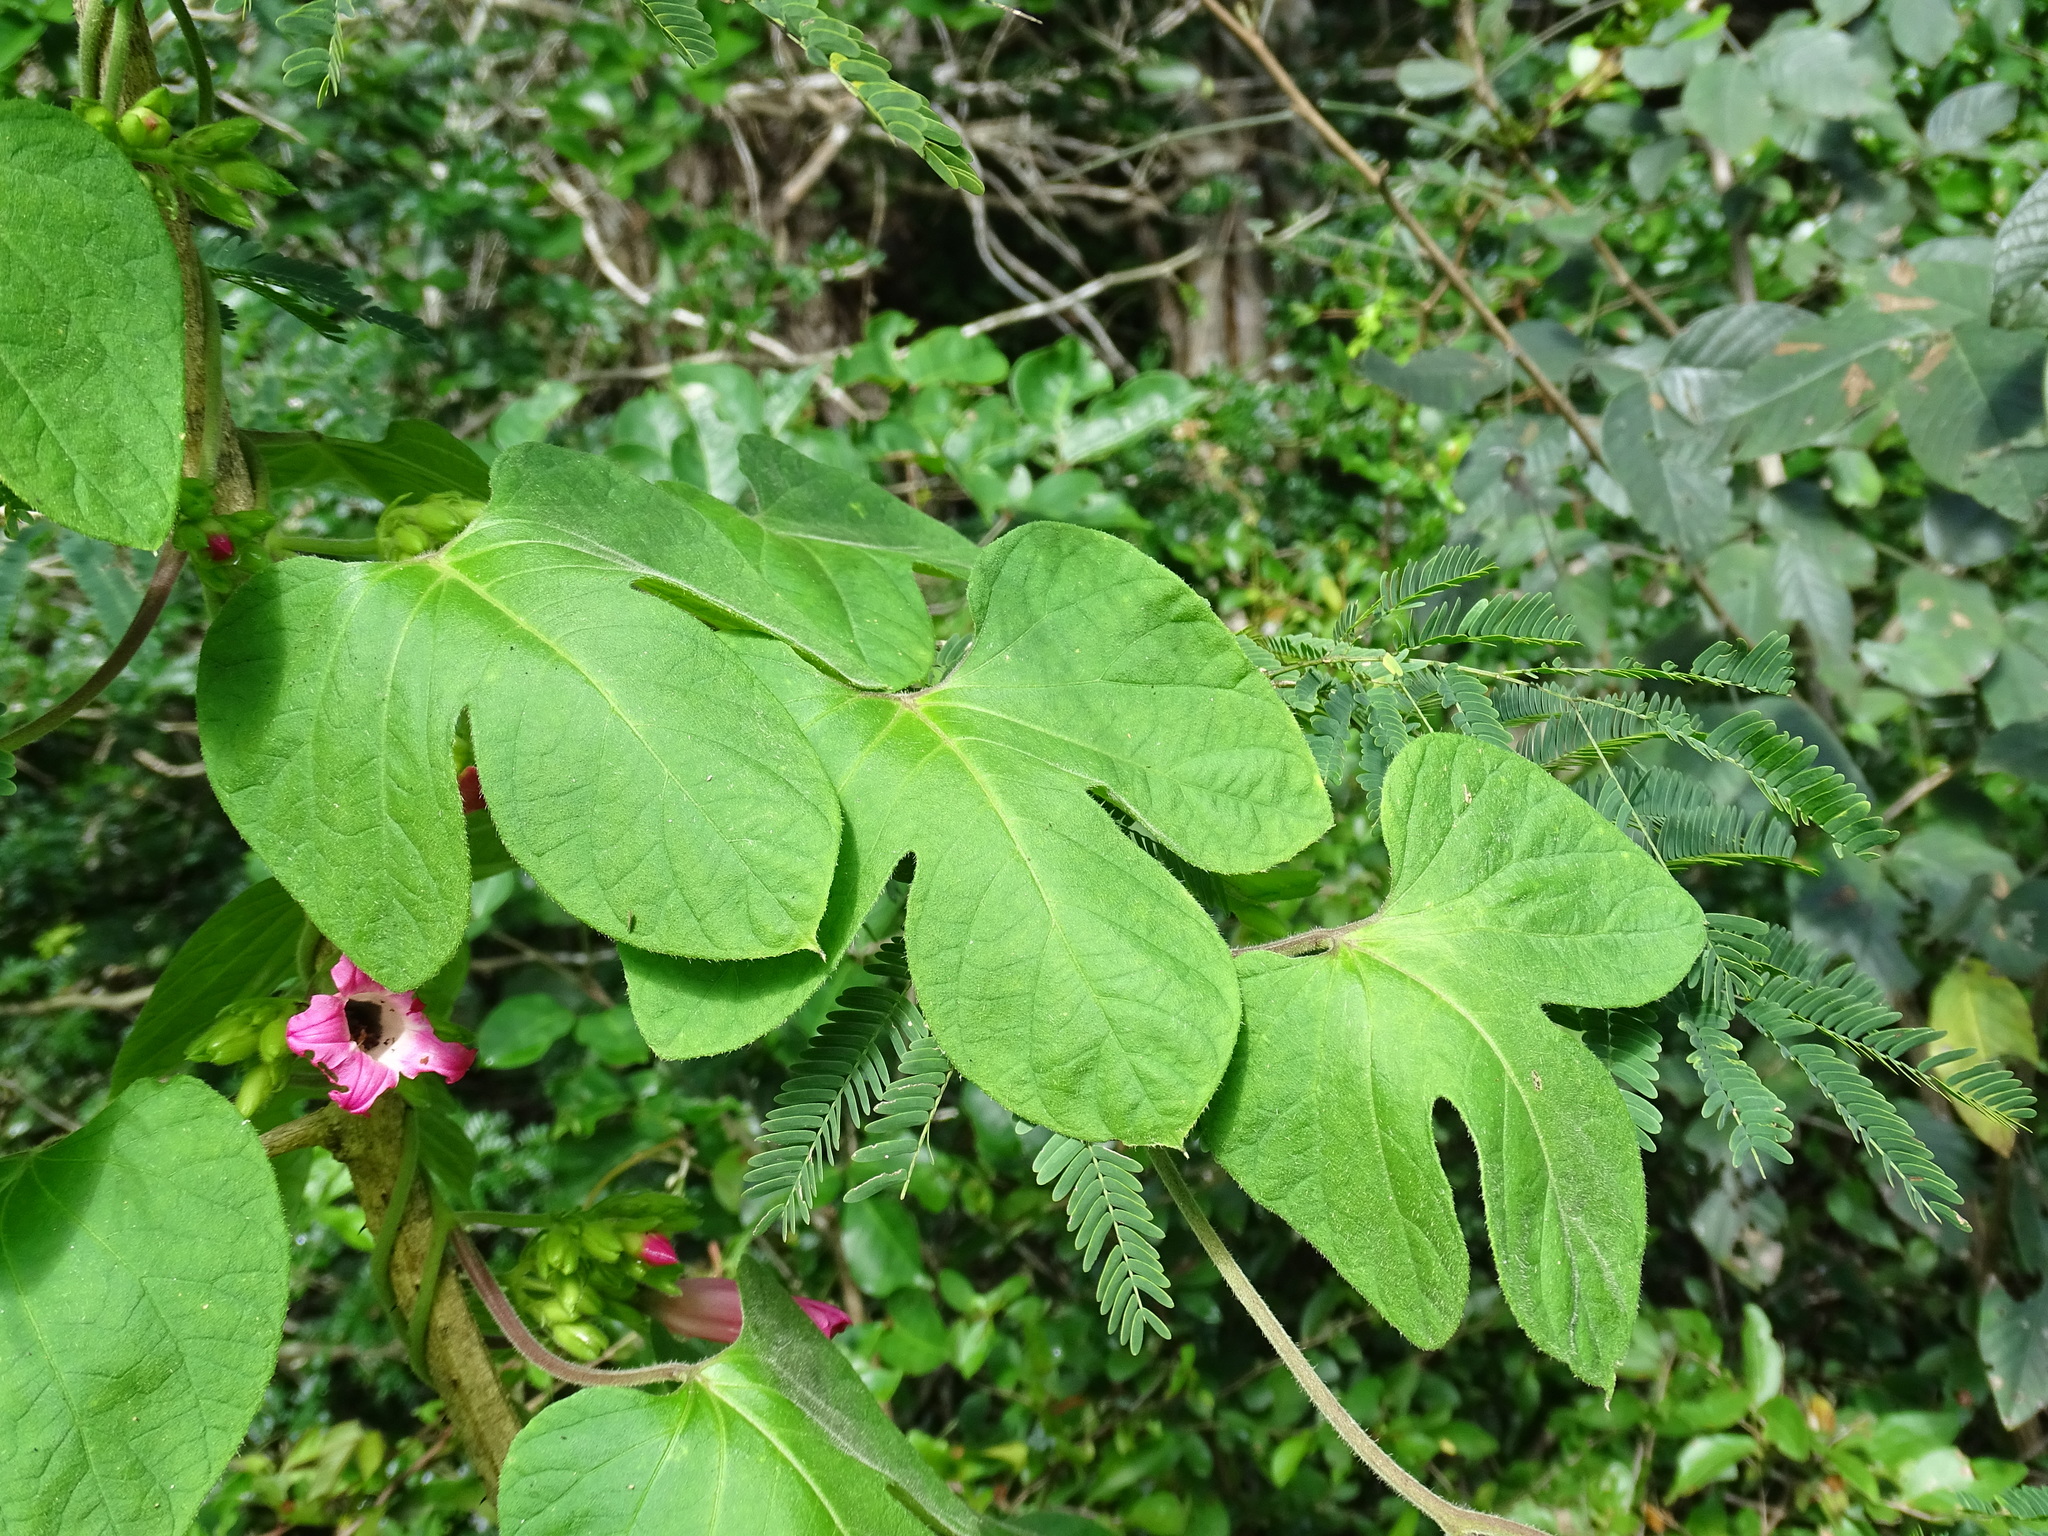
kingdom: Plantae
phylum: Tracheophyta
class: Magnoliopsida
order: Solanales
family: Convolvulaceae
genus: Ipomoea
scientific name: Ipomoea peteri
